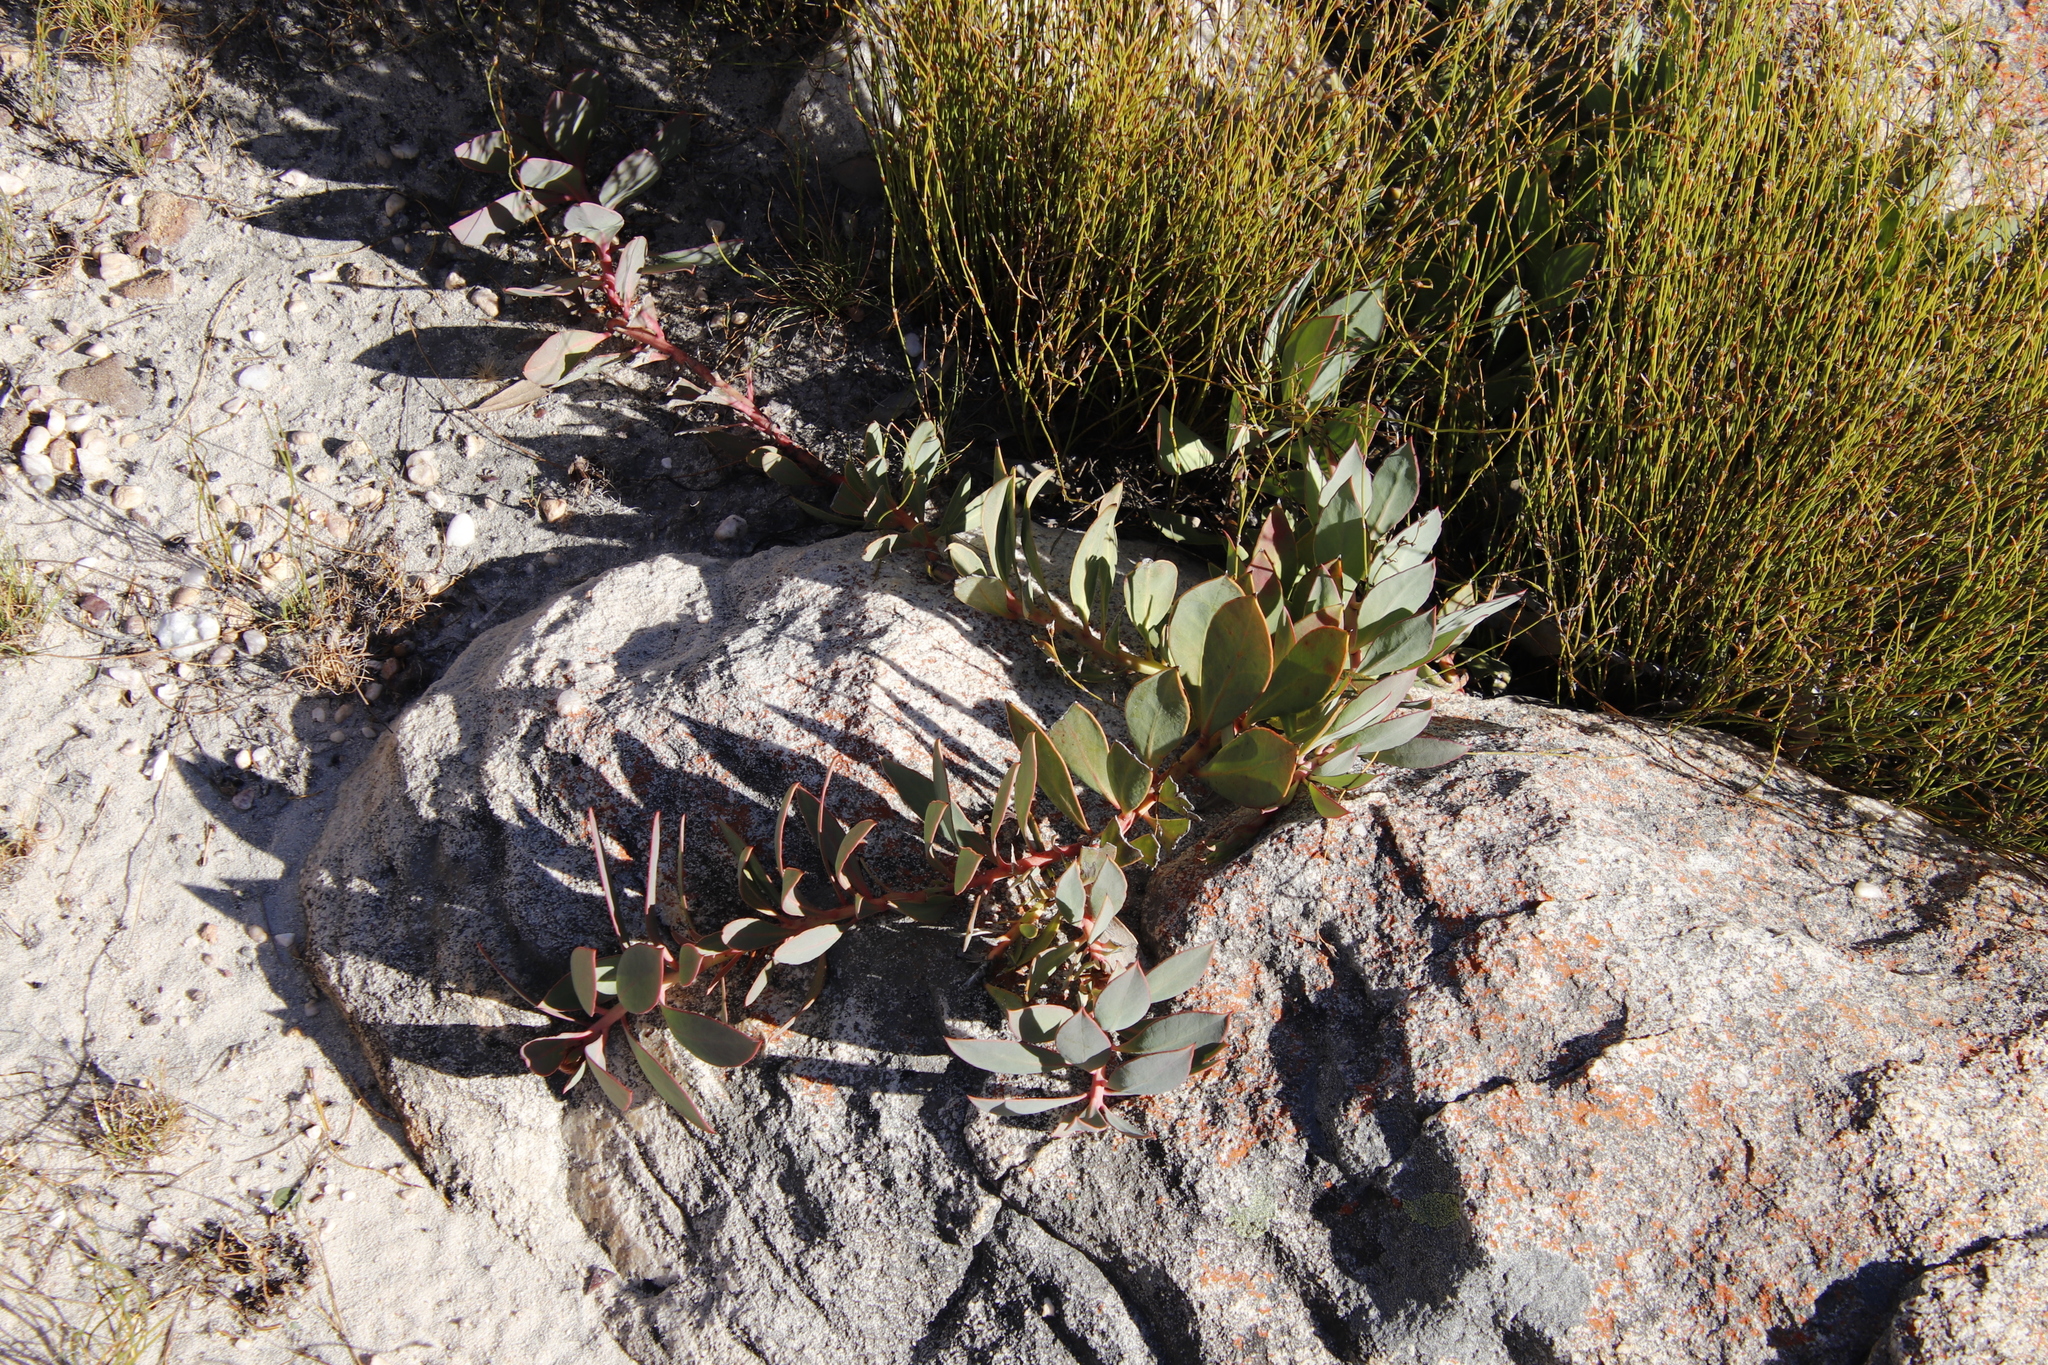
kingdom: Plantae
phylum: Tracheophyta
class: Magnoliopsida
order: Proteales
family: Proteaceae
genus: Protea
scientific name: Protea acaulos
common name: Common ground sugarbush
